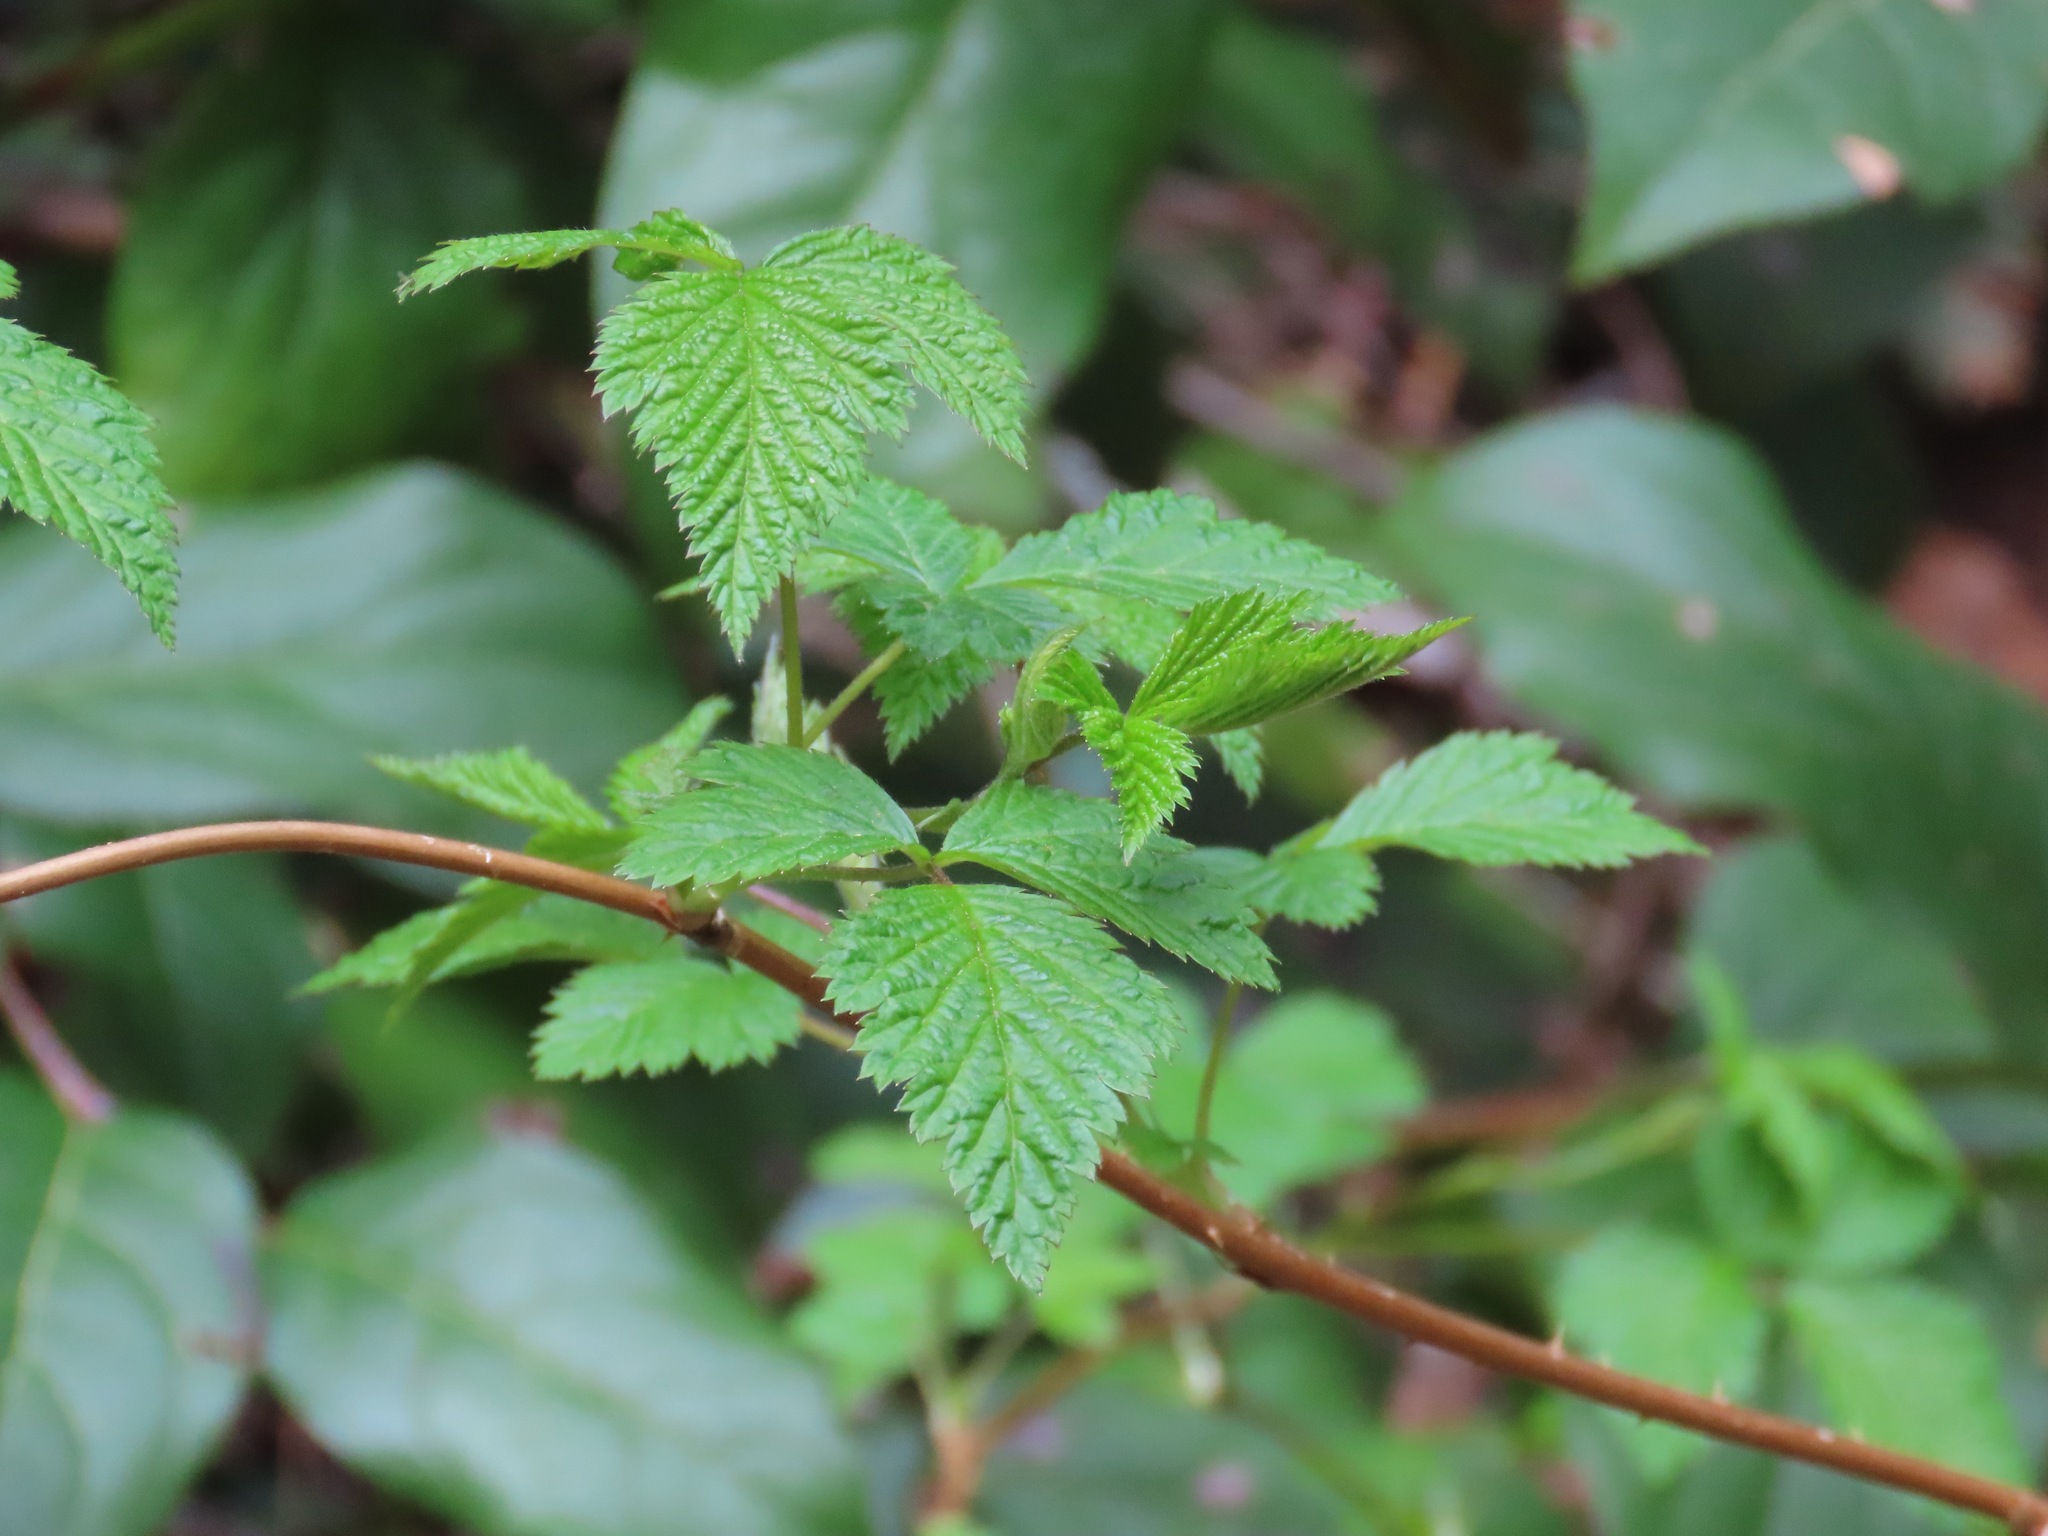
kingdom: Plantae
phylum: Tracheophyta
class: Magnoliopsida
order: Rosales
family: Rosaceae
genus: Rubus
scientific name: Rubus spectabilis
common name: Salmonberry
